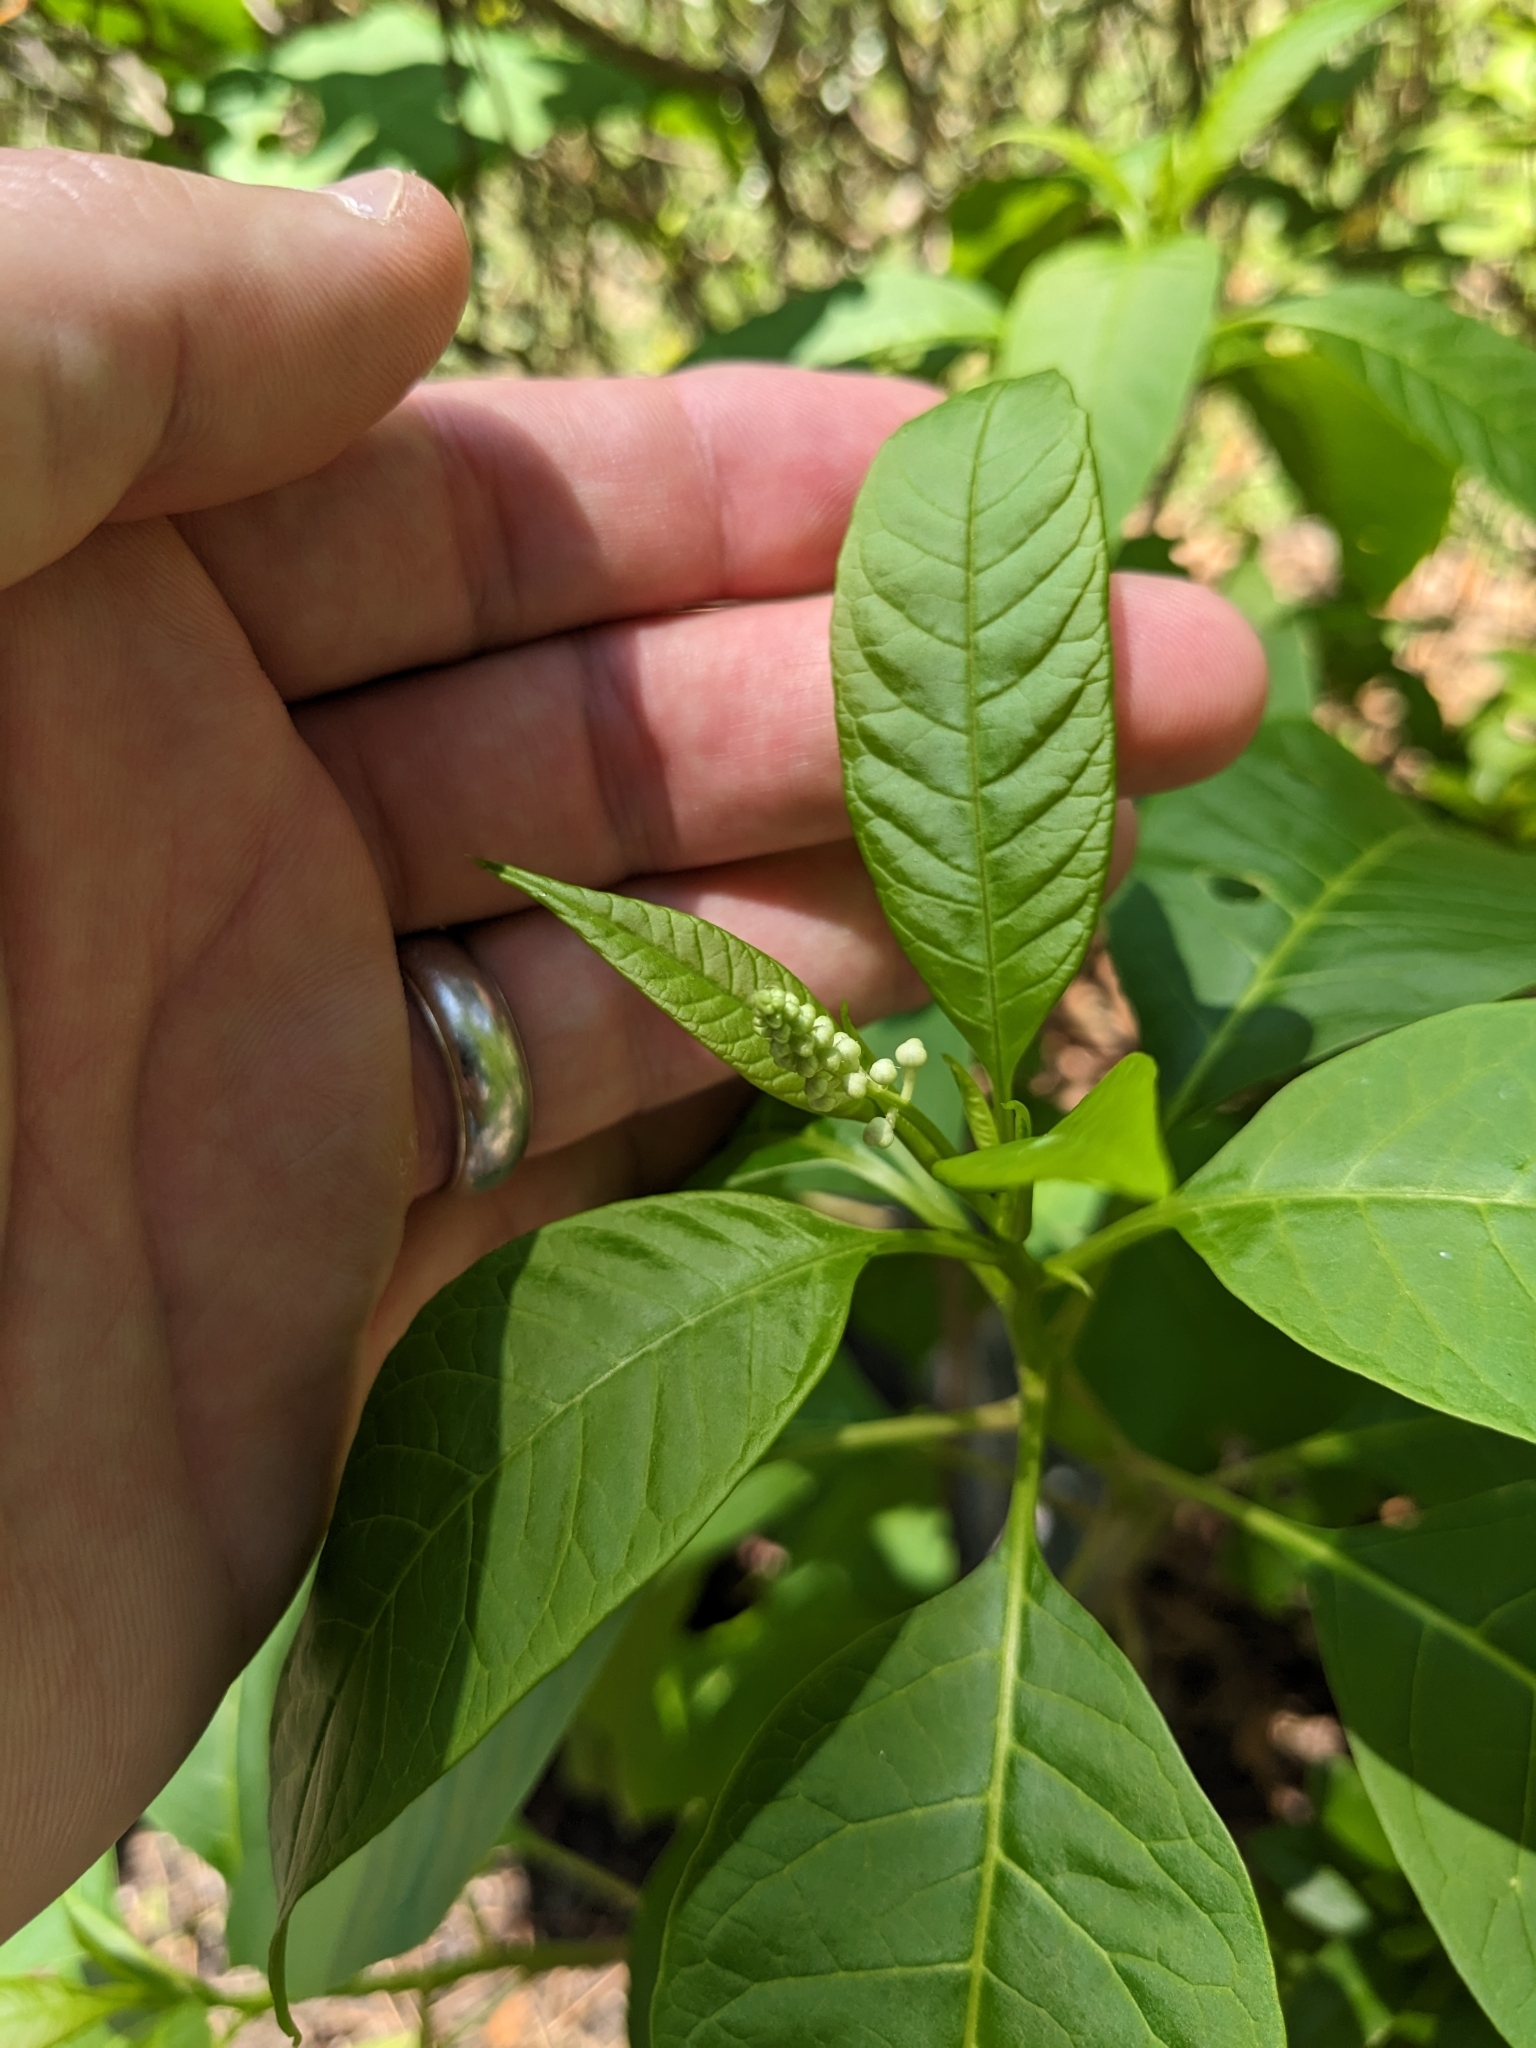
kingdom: Plantae
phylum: Tracheophyta
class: Magnoliopsida
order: Caryophyllales
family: Phytolaccaceae
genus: Phytolacca
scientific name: Phytolacca americana
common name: American pokeweed
